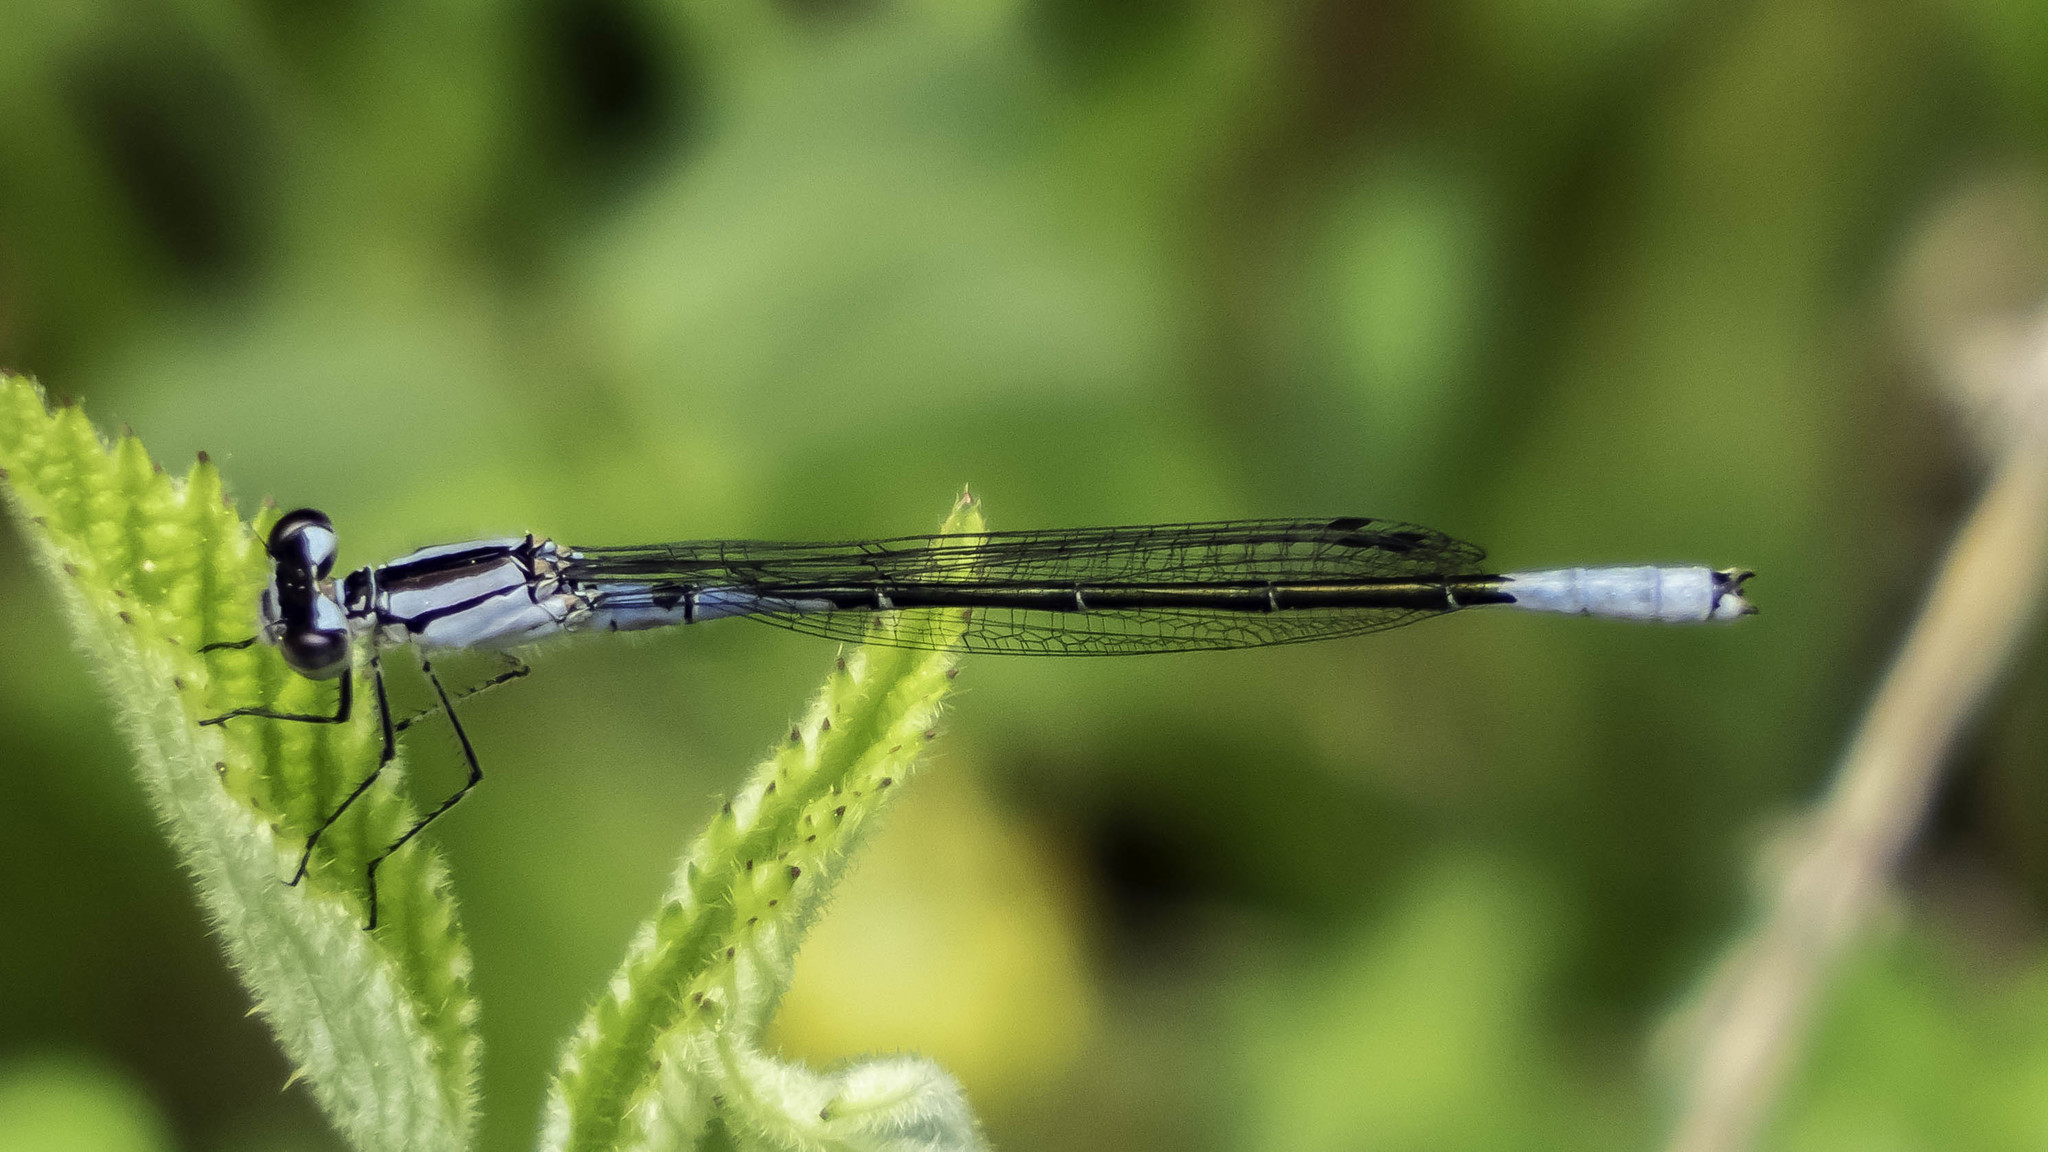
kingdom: Animalia
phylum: Arthropoda
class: Insecta
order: Odonata
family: Coenagrionidae
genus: Enallagma
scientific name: Enallagma aspersum
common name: Azure bluet
